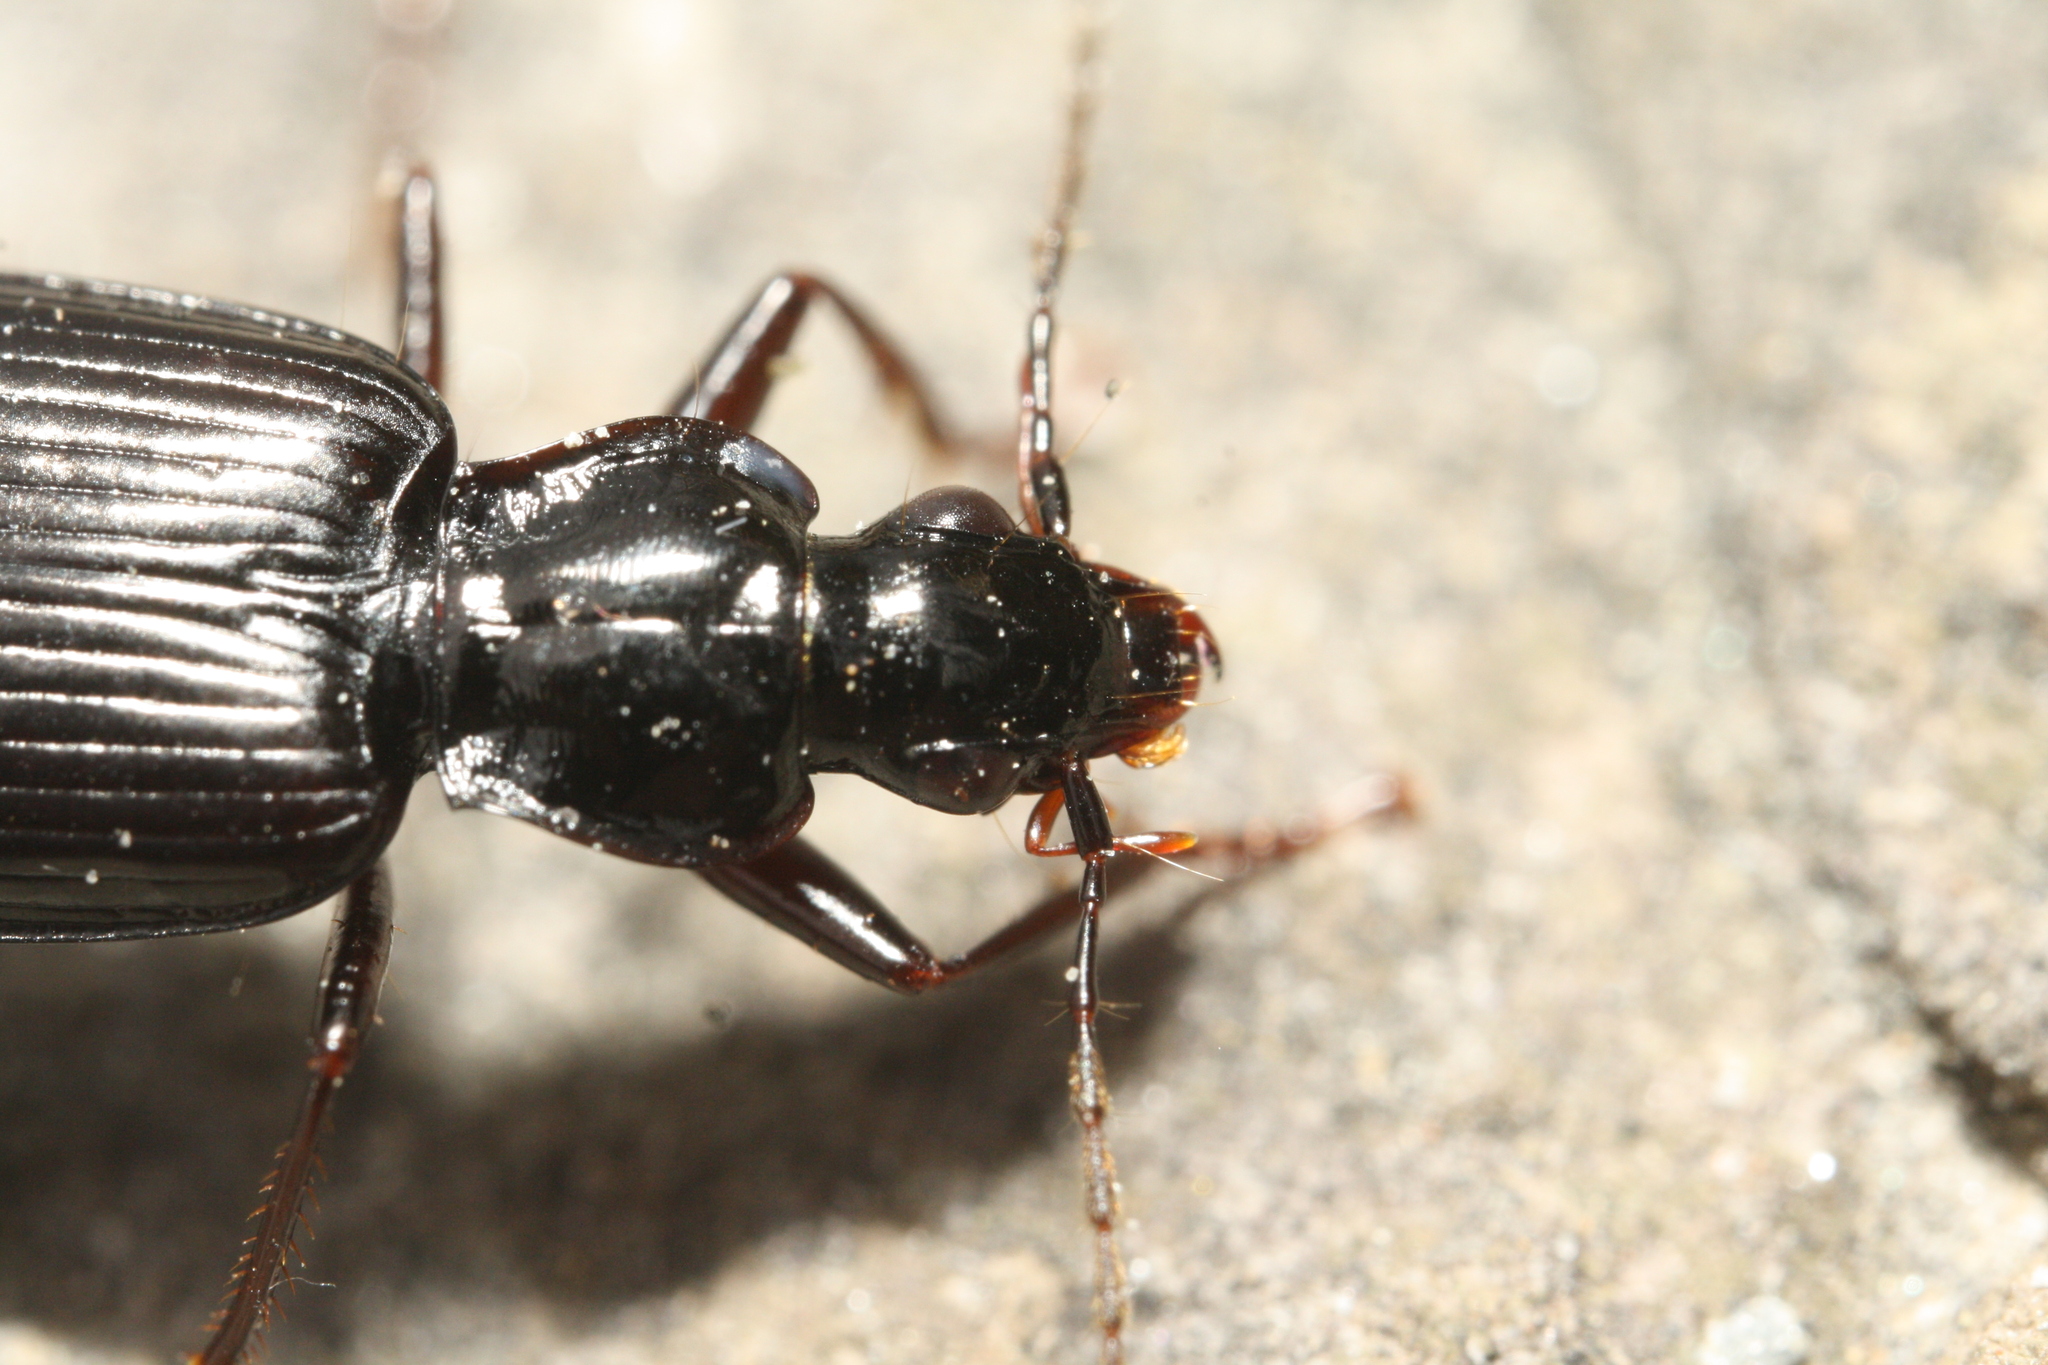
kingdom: Animalia
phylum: Arthropoda
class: Insecta
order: Coleoptera
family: Carabidae
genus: Platynus
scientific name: Platynus assimilis
